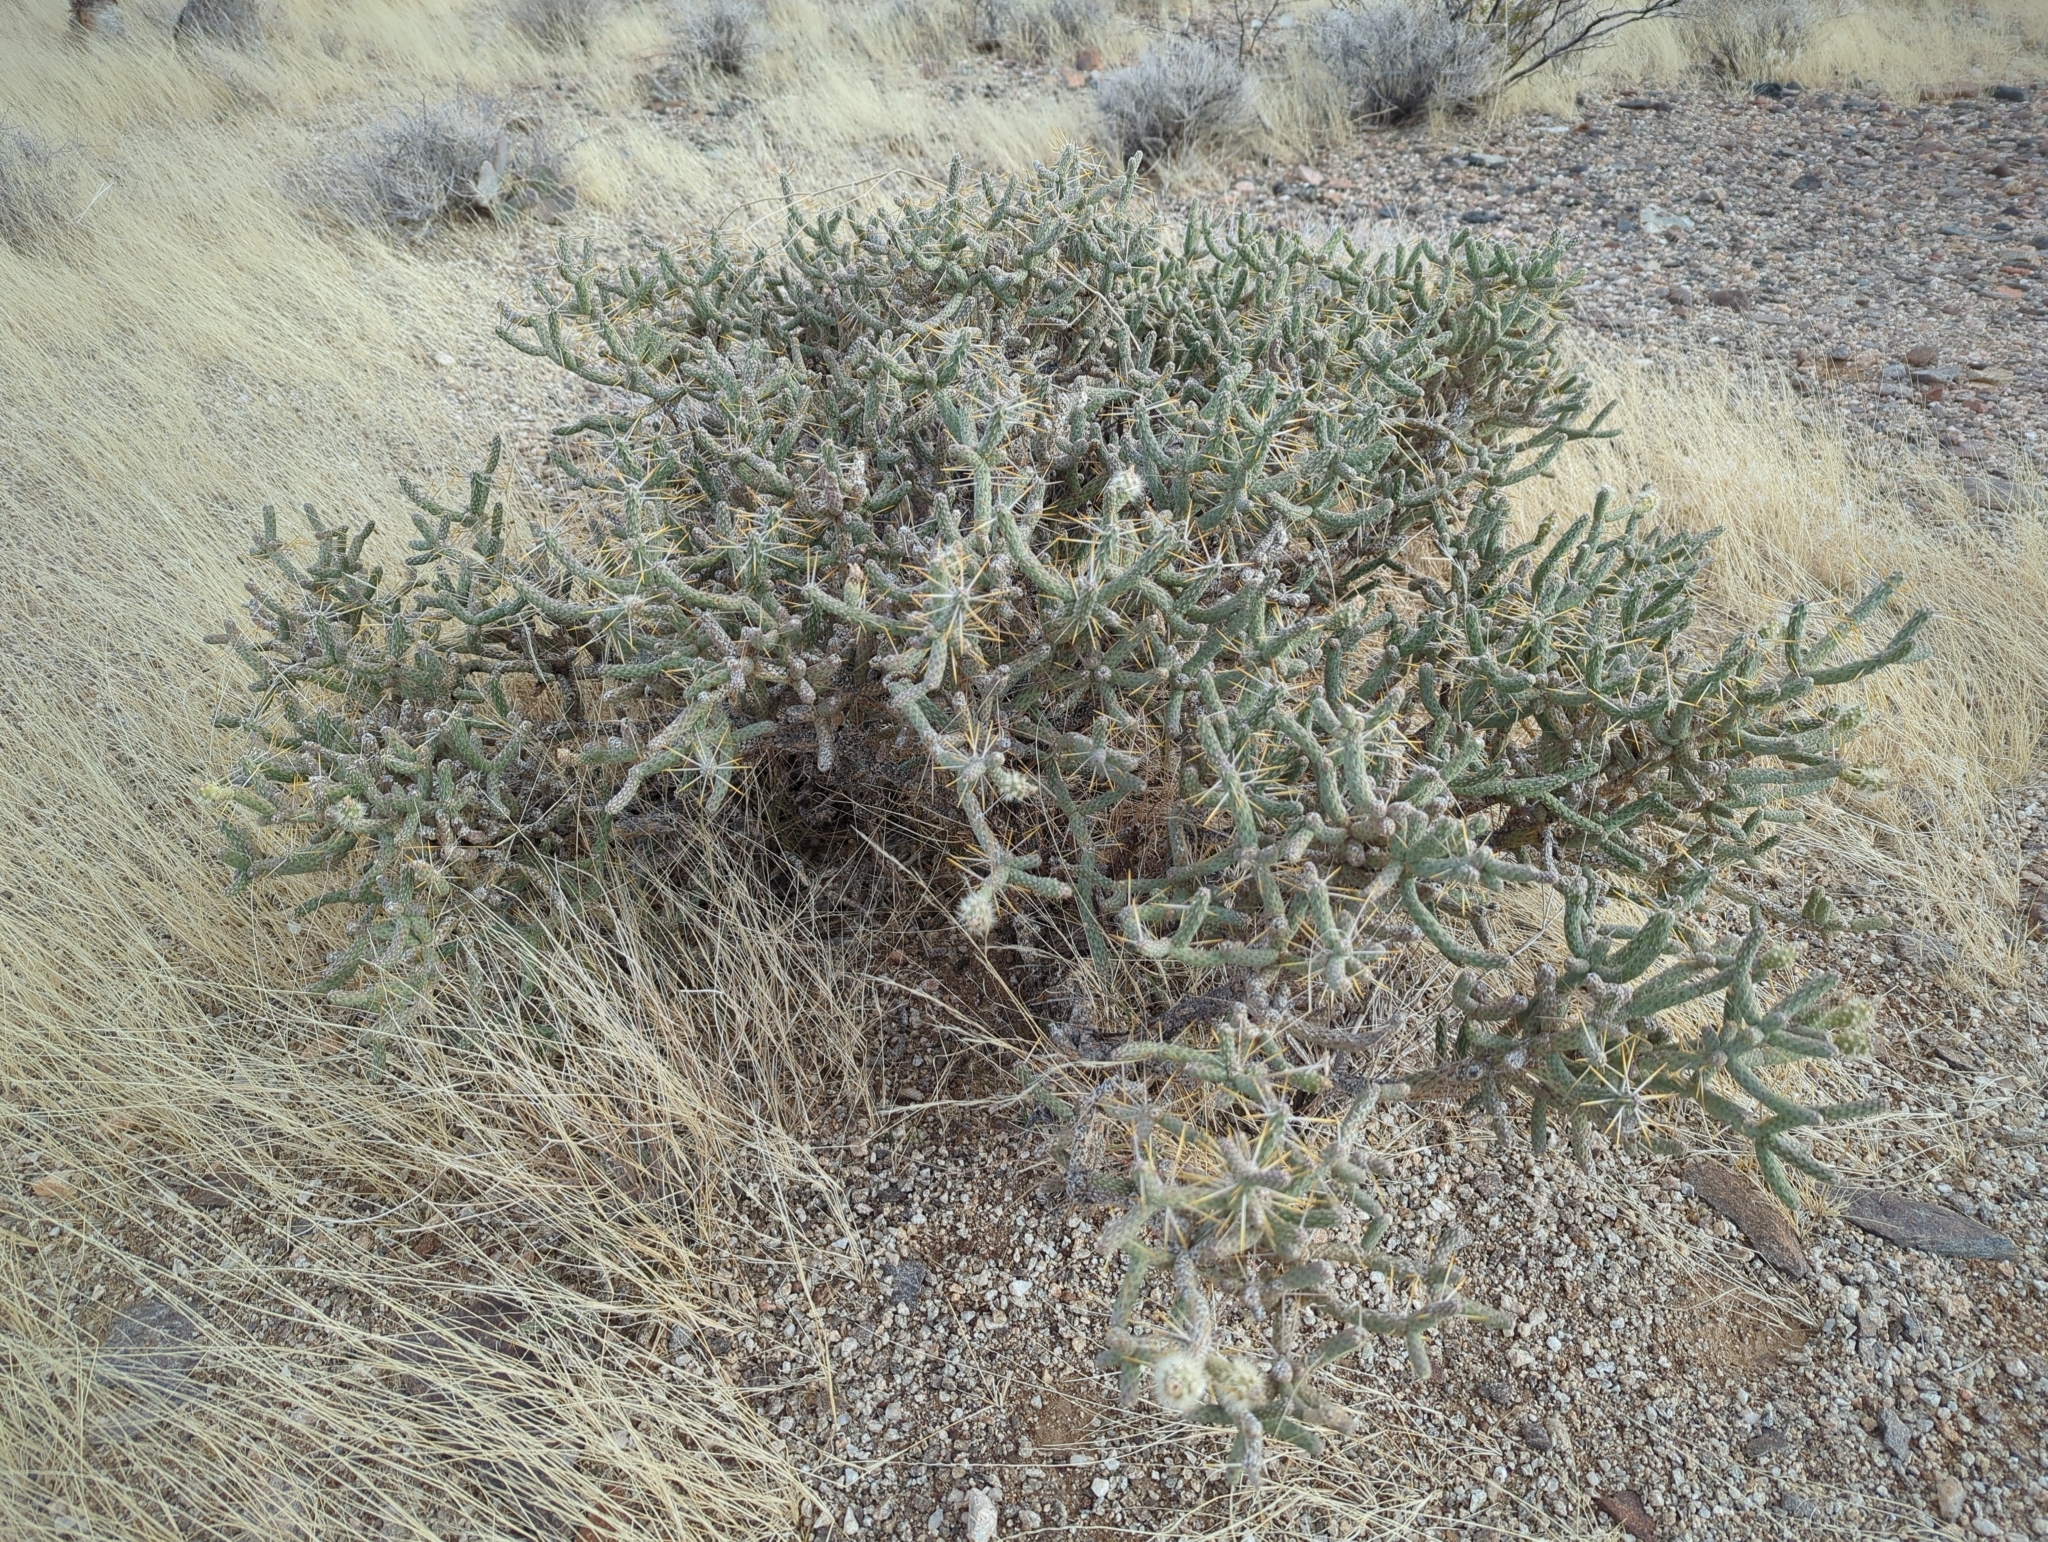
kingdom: Plantae
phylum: Tracheophyta
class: Magnoliopsida
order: Caryophyllales
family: Cactaceae
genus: Cylindropuntia
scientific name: Cylindropuntia ramosissima
